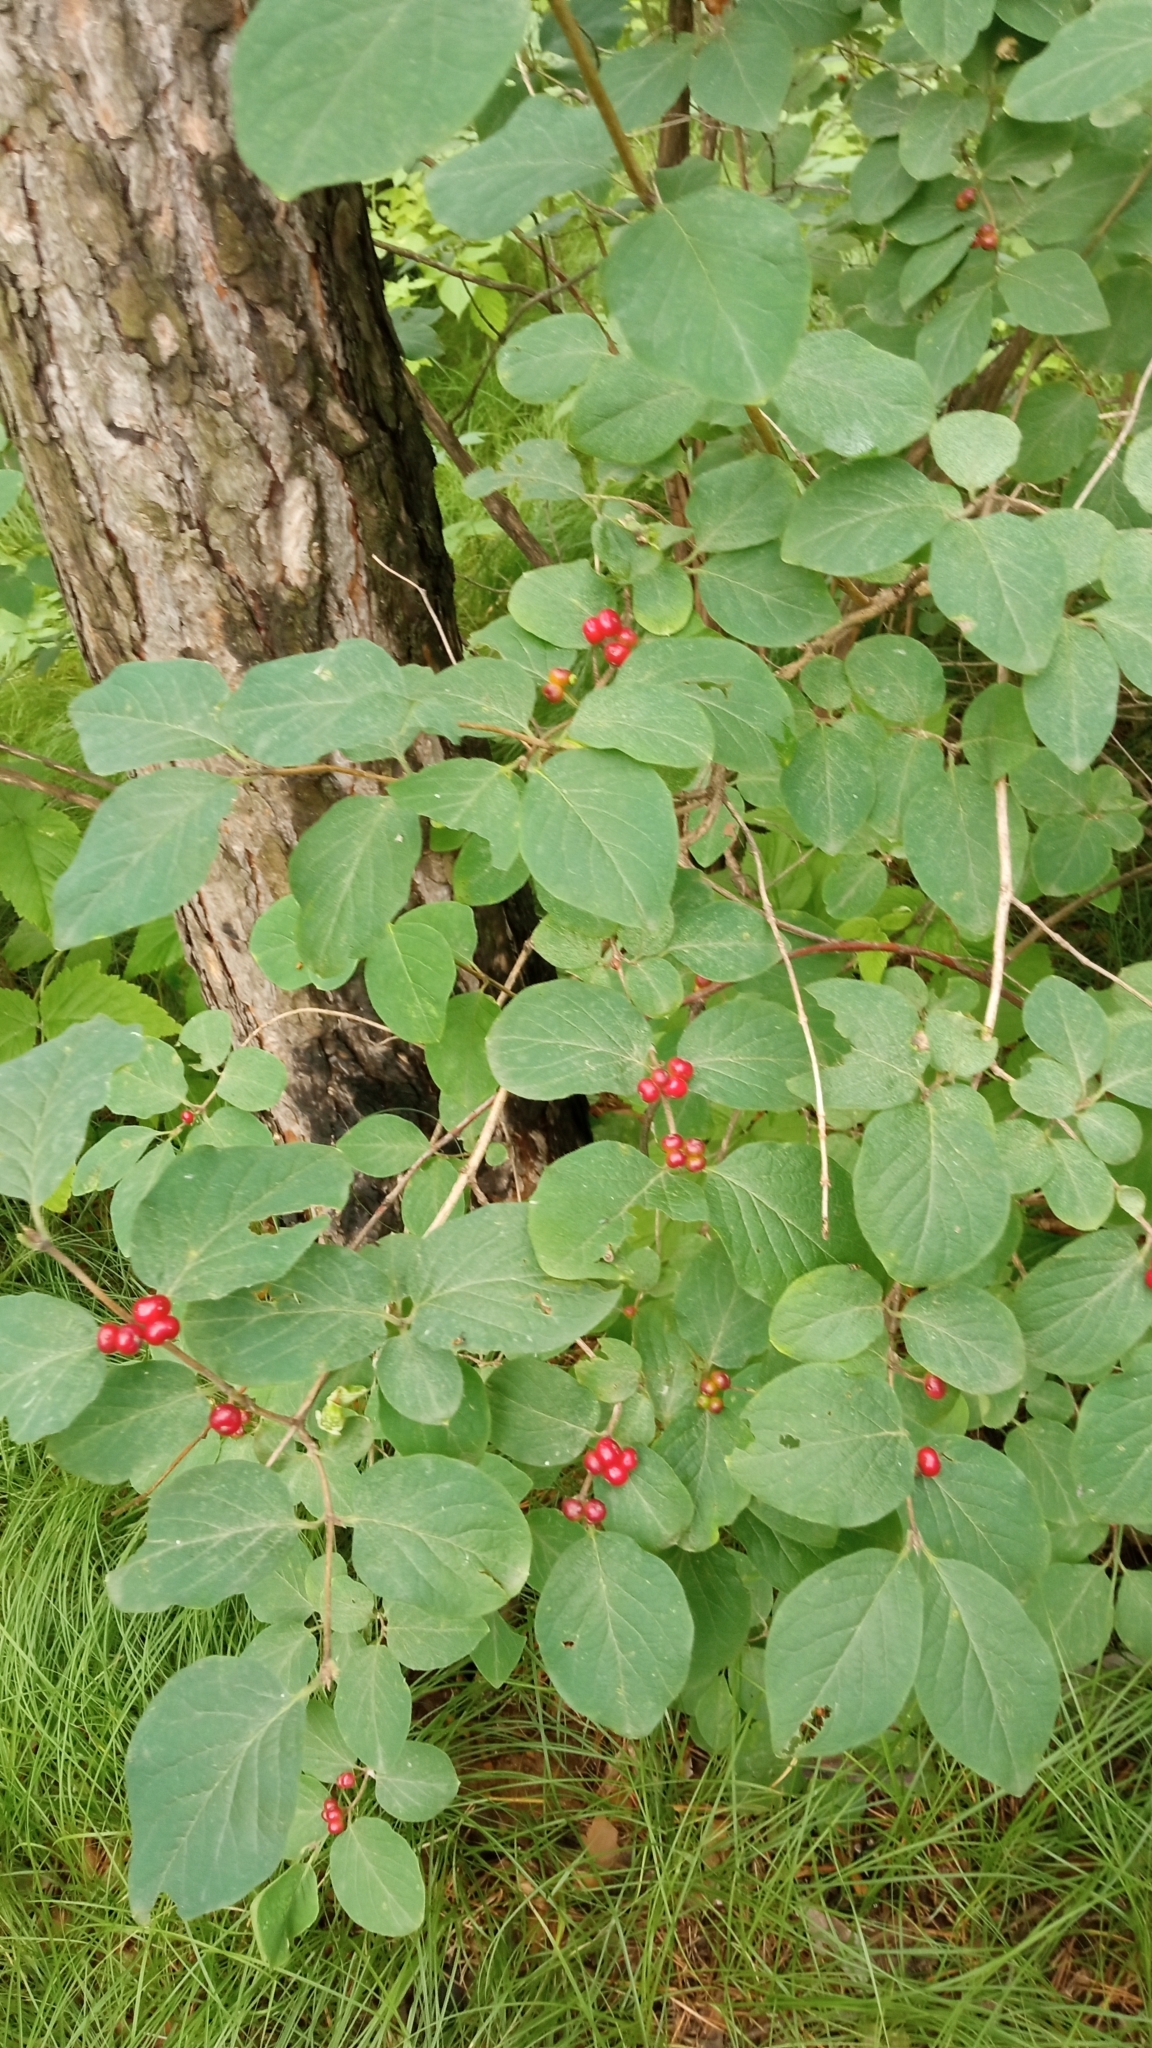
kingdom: Plantae
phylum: Tracheophyta
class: Magnoliopsida
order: Dipsacales
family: Caprifoliaceae
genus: Lonicera
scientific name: Lonicera xylosteum
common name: Fly honeysuckle
